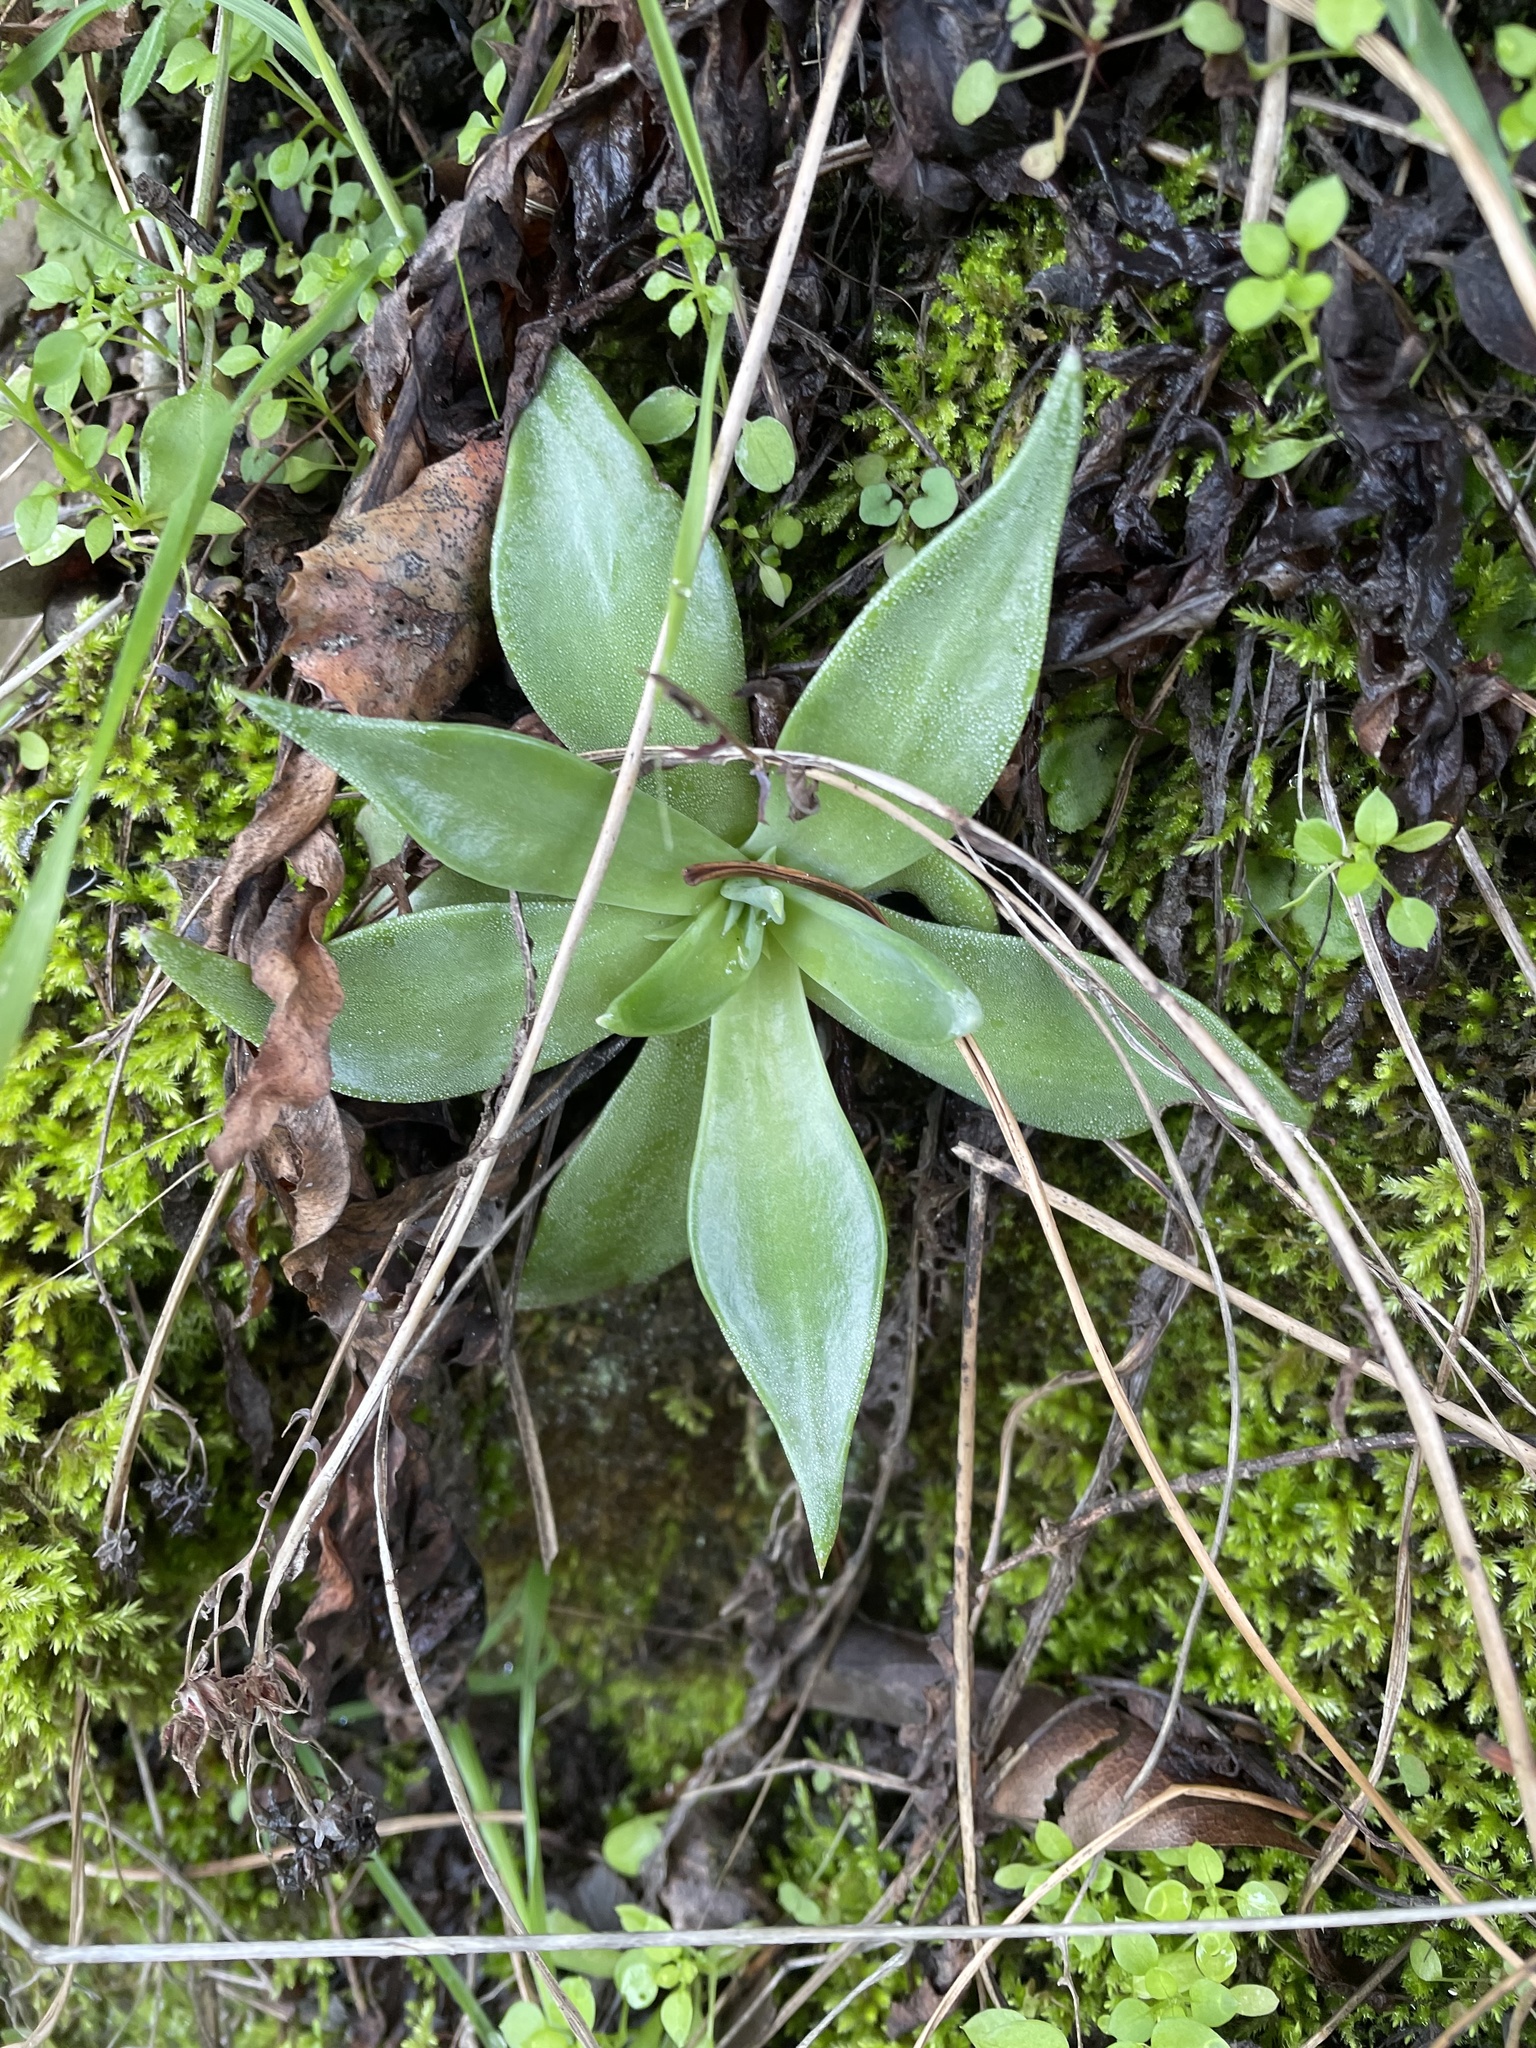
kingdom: Plantae
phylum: Tracheophyta
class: Magnoliopsida
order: Saxifragales
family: Crassulaceae
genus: Dudleya
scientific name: Dudleya cymosa
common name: Canyon dudleya
